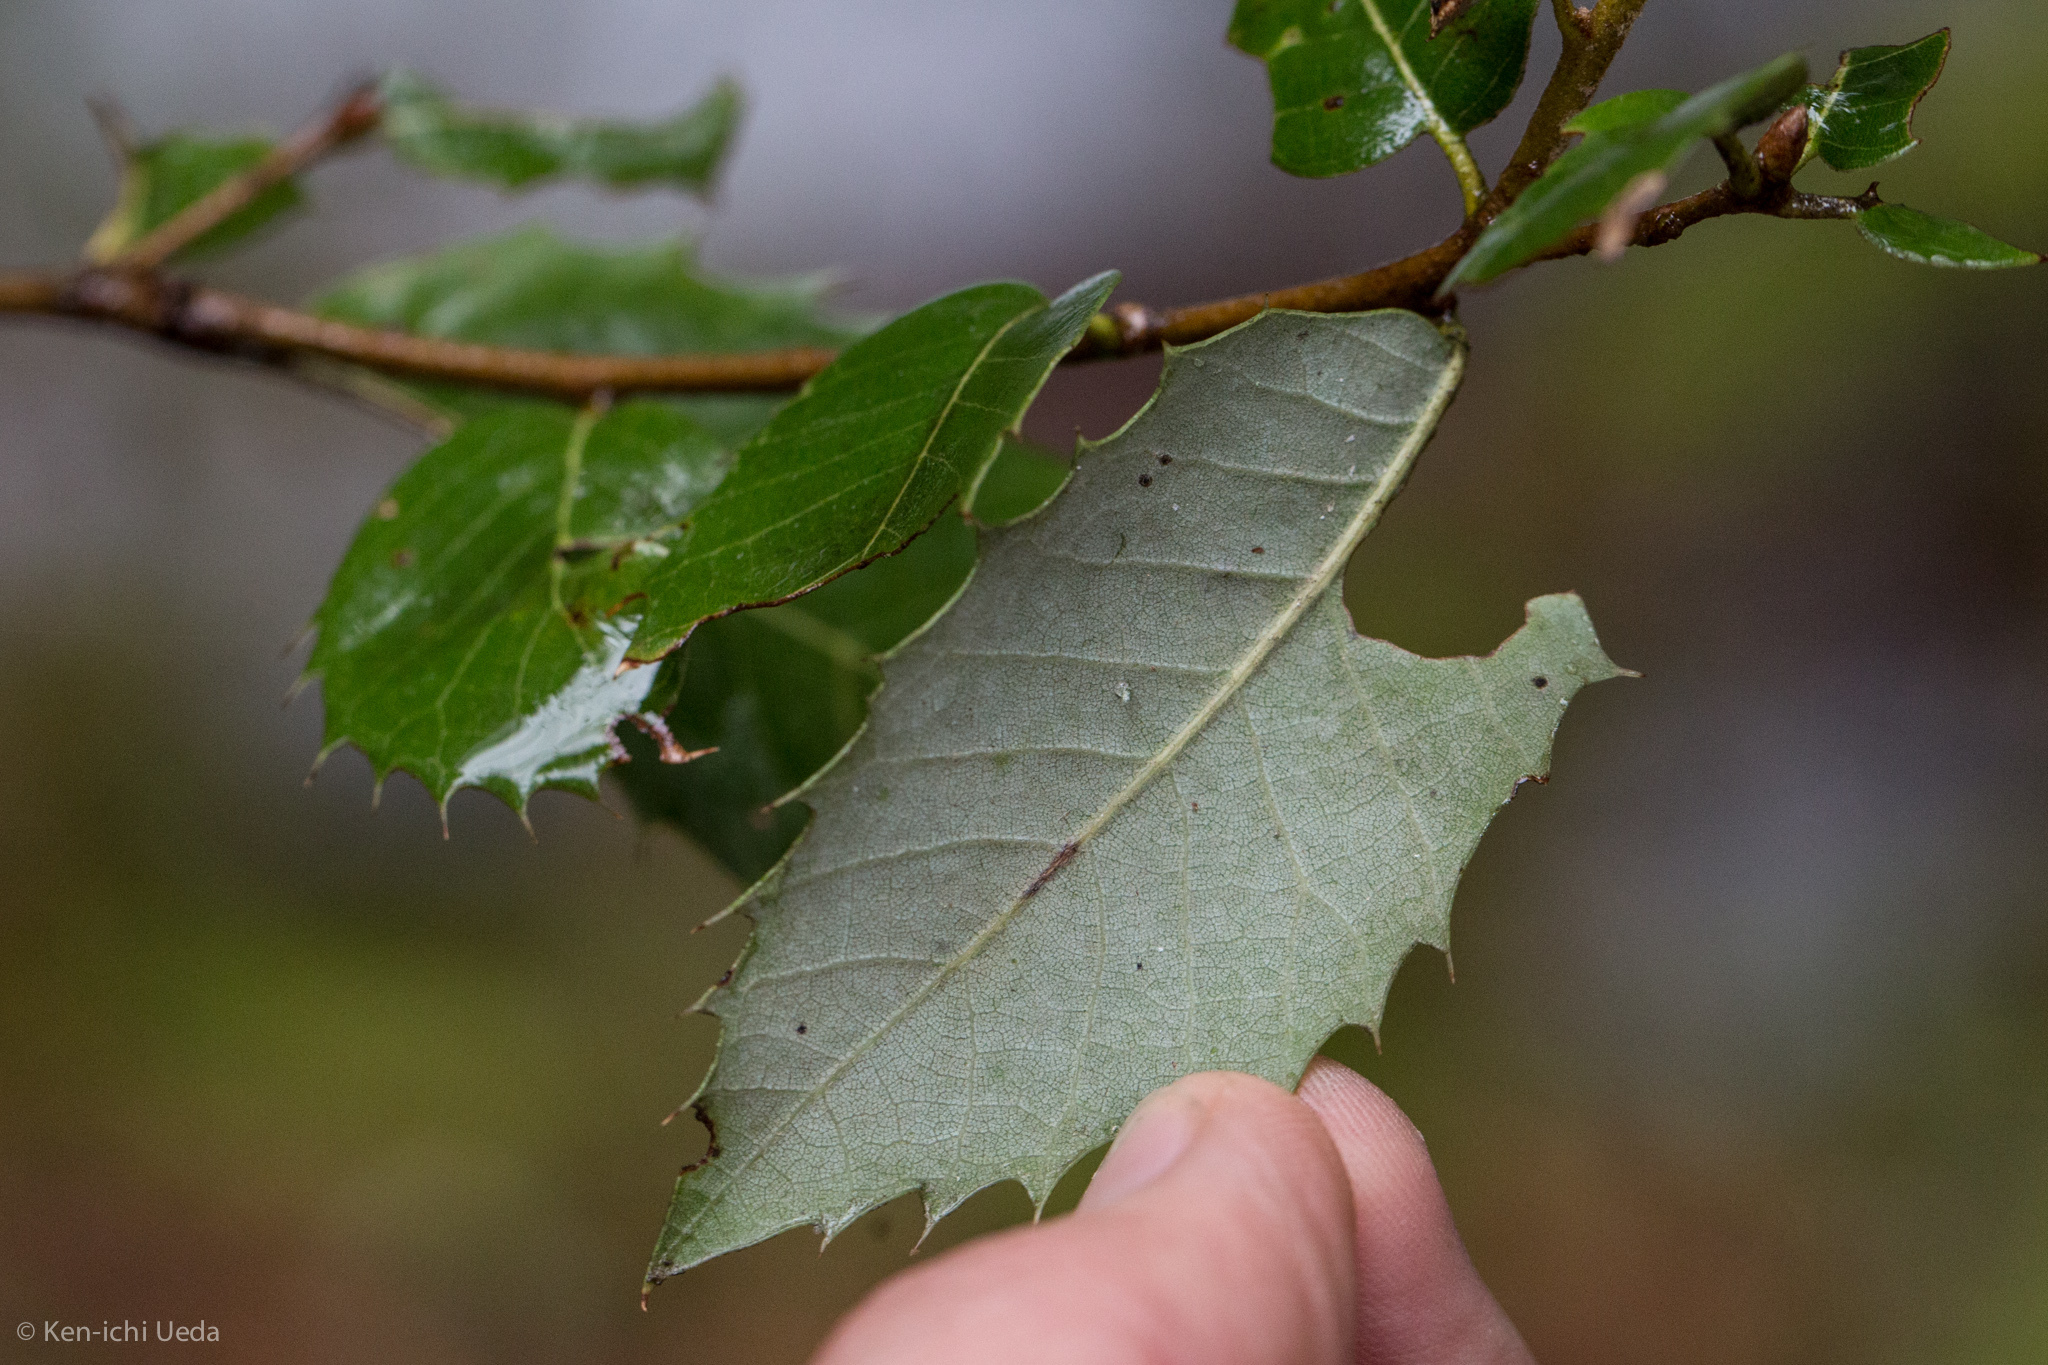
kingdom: Plantae
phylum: Tracheophyta
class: Magnoliopsida
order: Fagales
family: Fagaceae
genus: Quercus
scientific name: Quercus chrysolepis
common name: Canyon live oak
